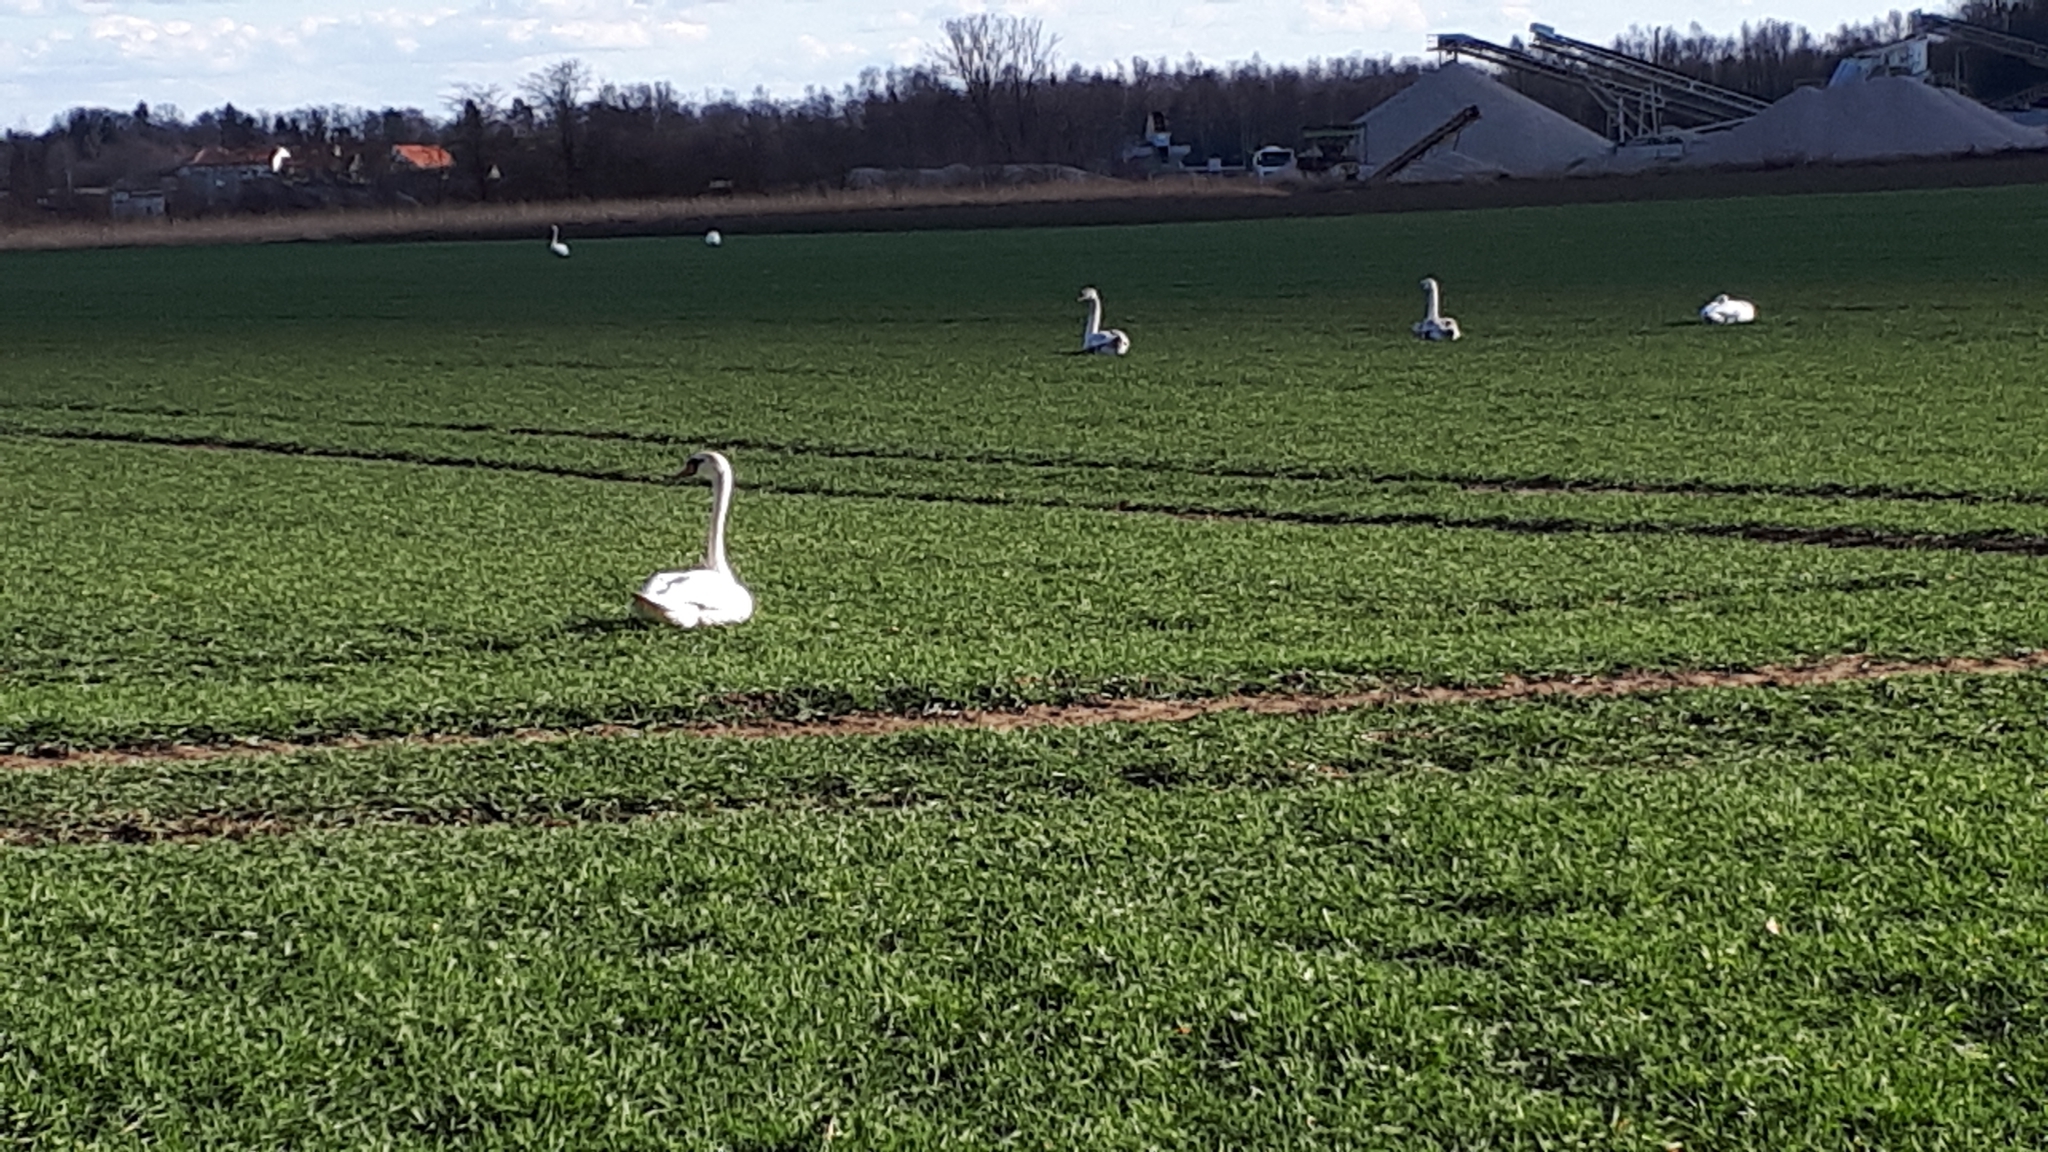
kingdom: Animalia
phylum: Chordata
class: Aves
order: Anseriformes
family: Anatidae
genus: Cygnus
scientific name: Cygnus olor
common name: Mute swan
